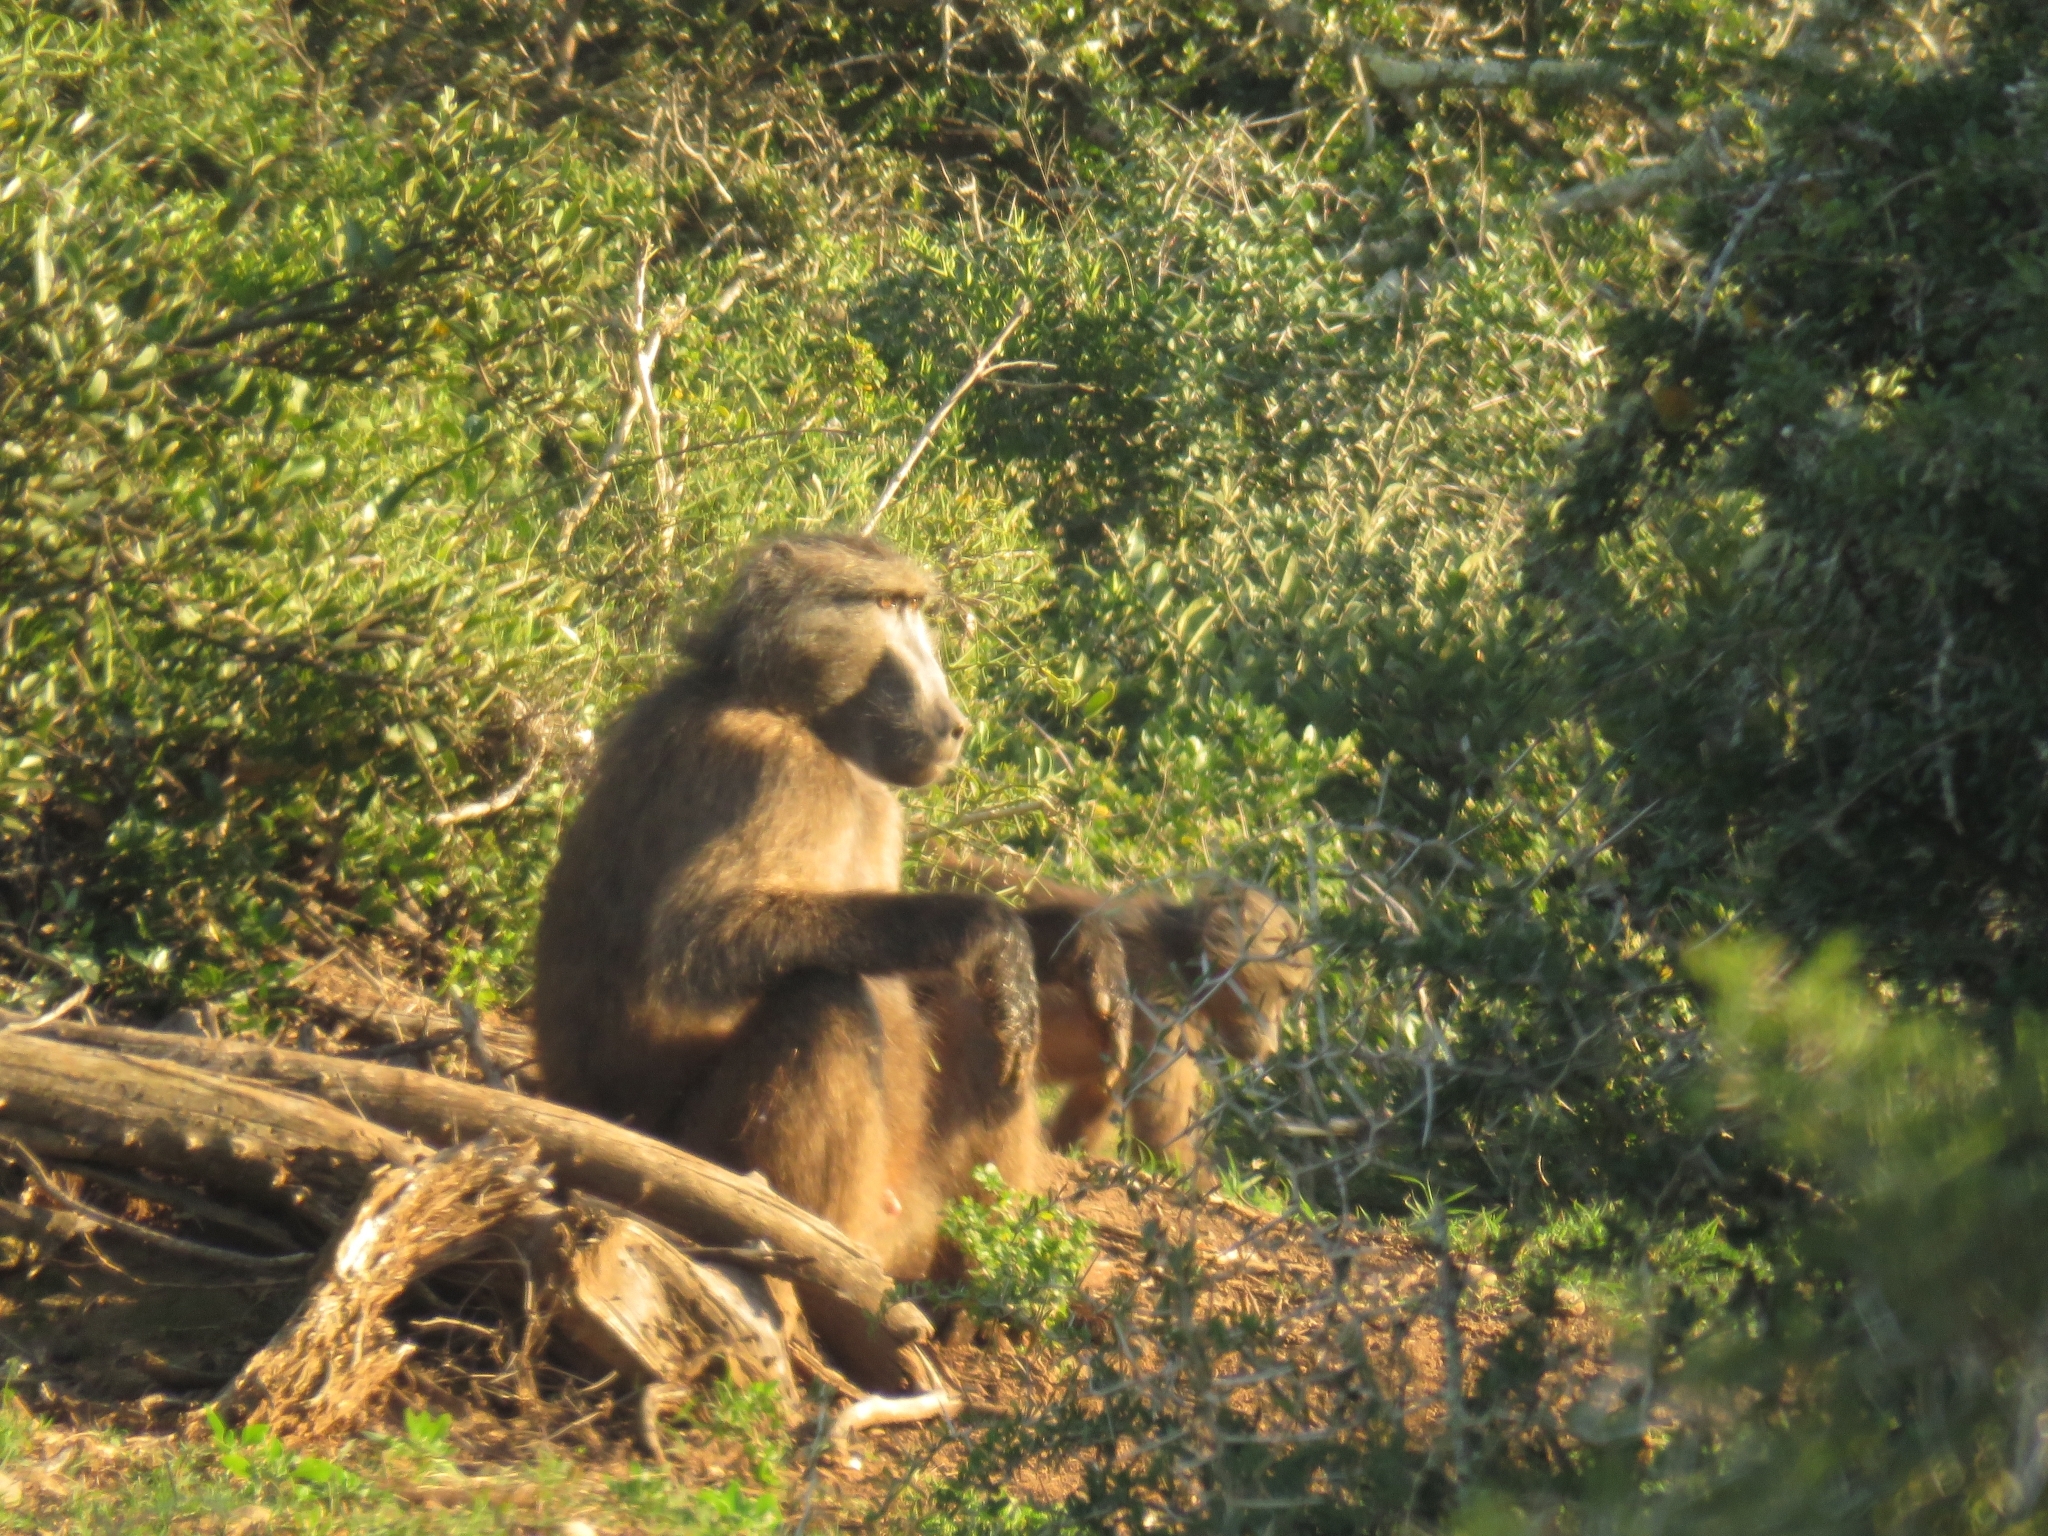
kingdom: Animalia
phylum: Chordata
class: Mammalia
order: Primates
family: Cercopithecidae
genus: Papio
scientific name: Papio ursinus
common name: Chacma baboon
